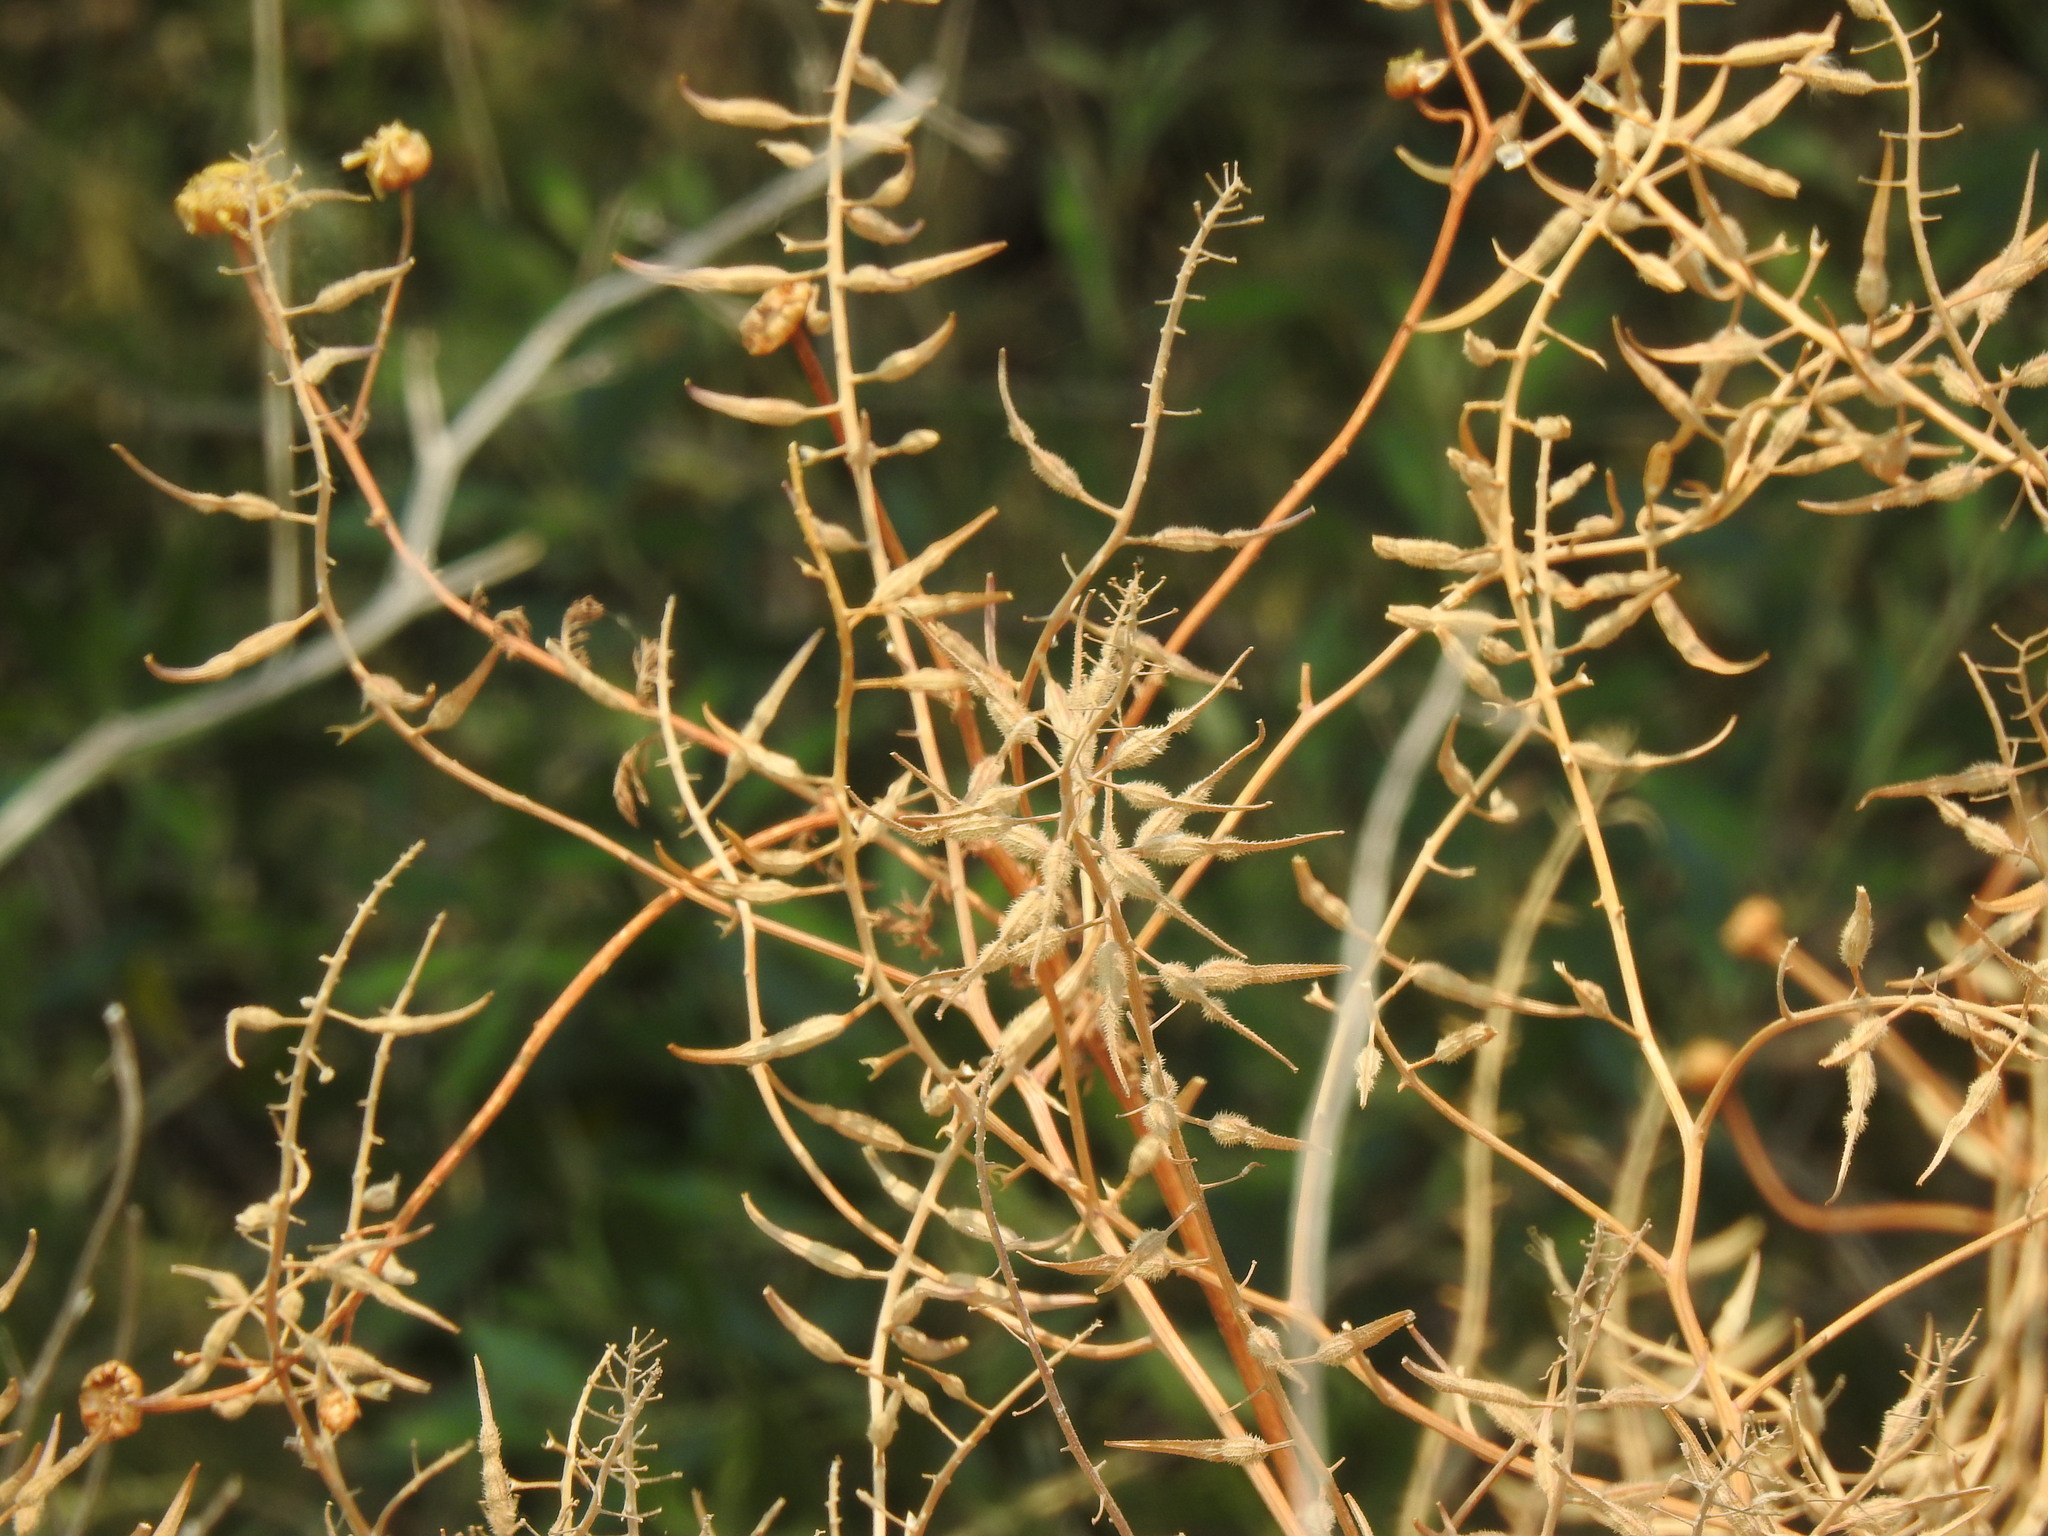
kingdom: Plantae
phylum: Tracheophyta
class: Magnoliopsida
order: Brassicales
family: Brassicaceae
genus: Sinapis
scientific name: Sinapis alba
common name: White mustard
